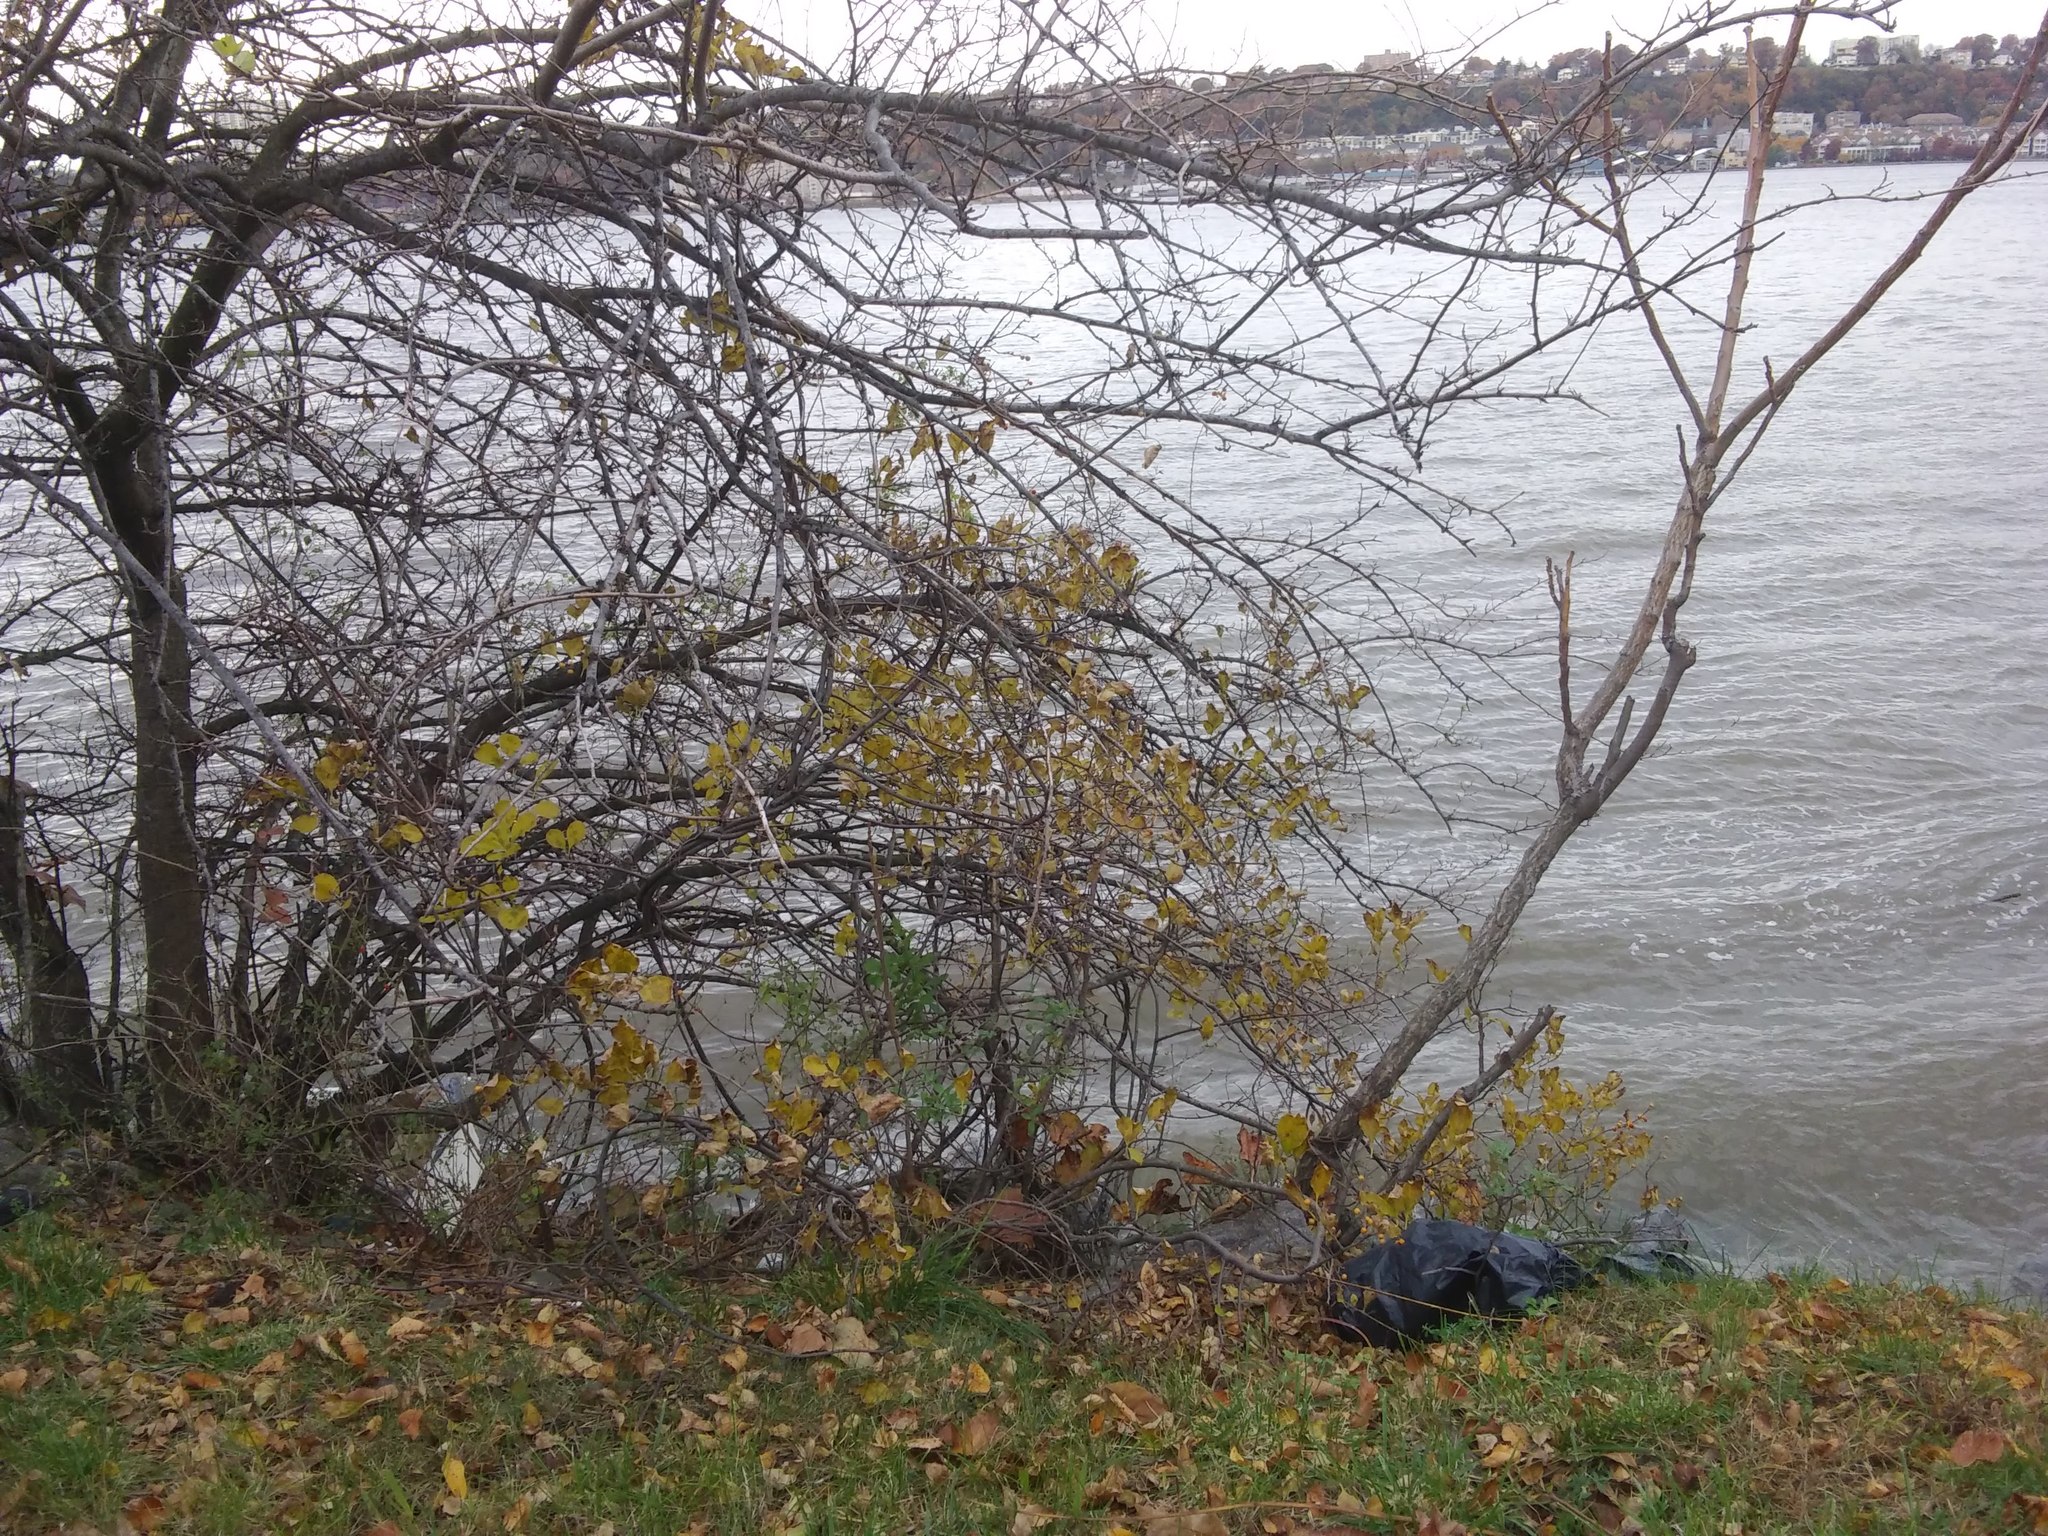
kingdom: Plantae
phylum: Tracheophyta
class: Magnoliopsida
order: Celastrales
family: Celastraceae
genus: Celastrus
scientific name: Celastrus orbiculatus
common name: Oriental bittersweet
